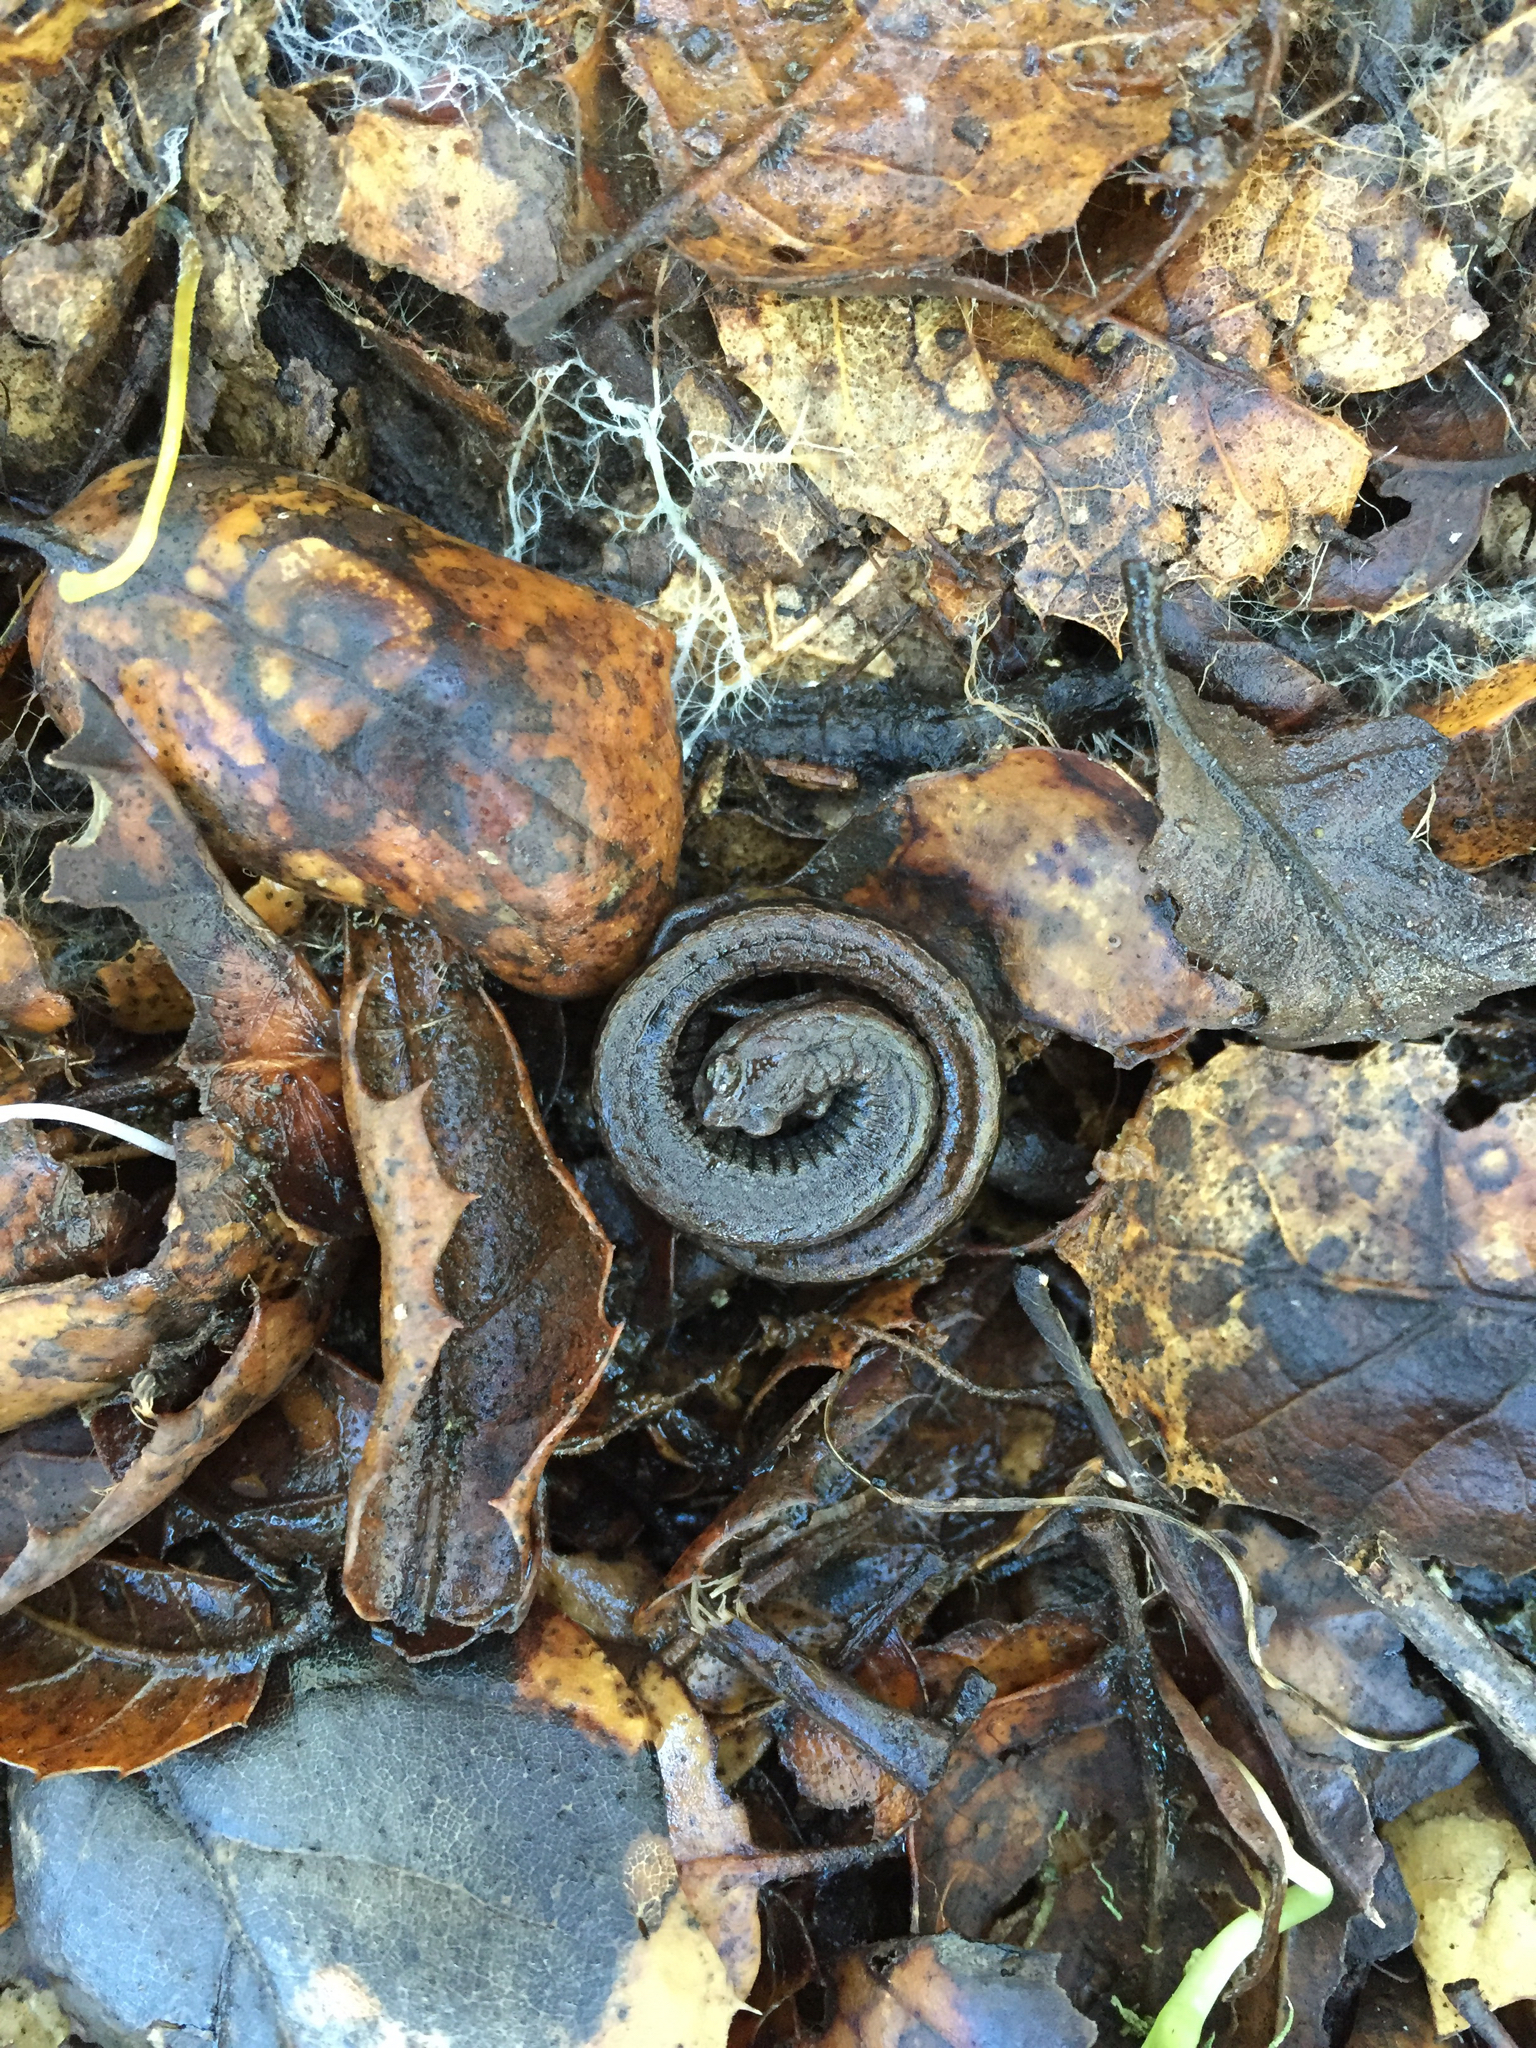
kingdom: Animalia
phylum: Chordata
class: Amphibia
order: Caudata
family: Plethodontidae
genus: Batrachoseps
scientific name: Batrachoseps attenuatus
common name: California slender salamander
